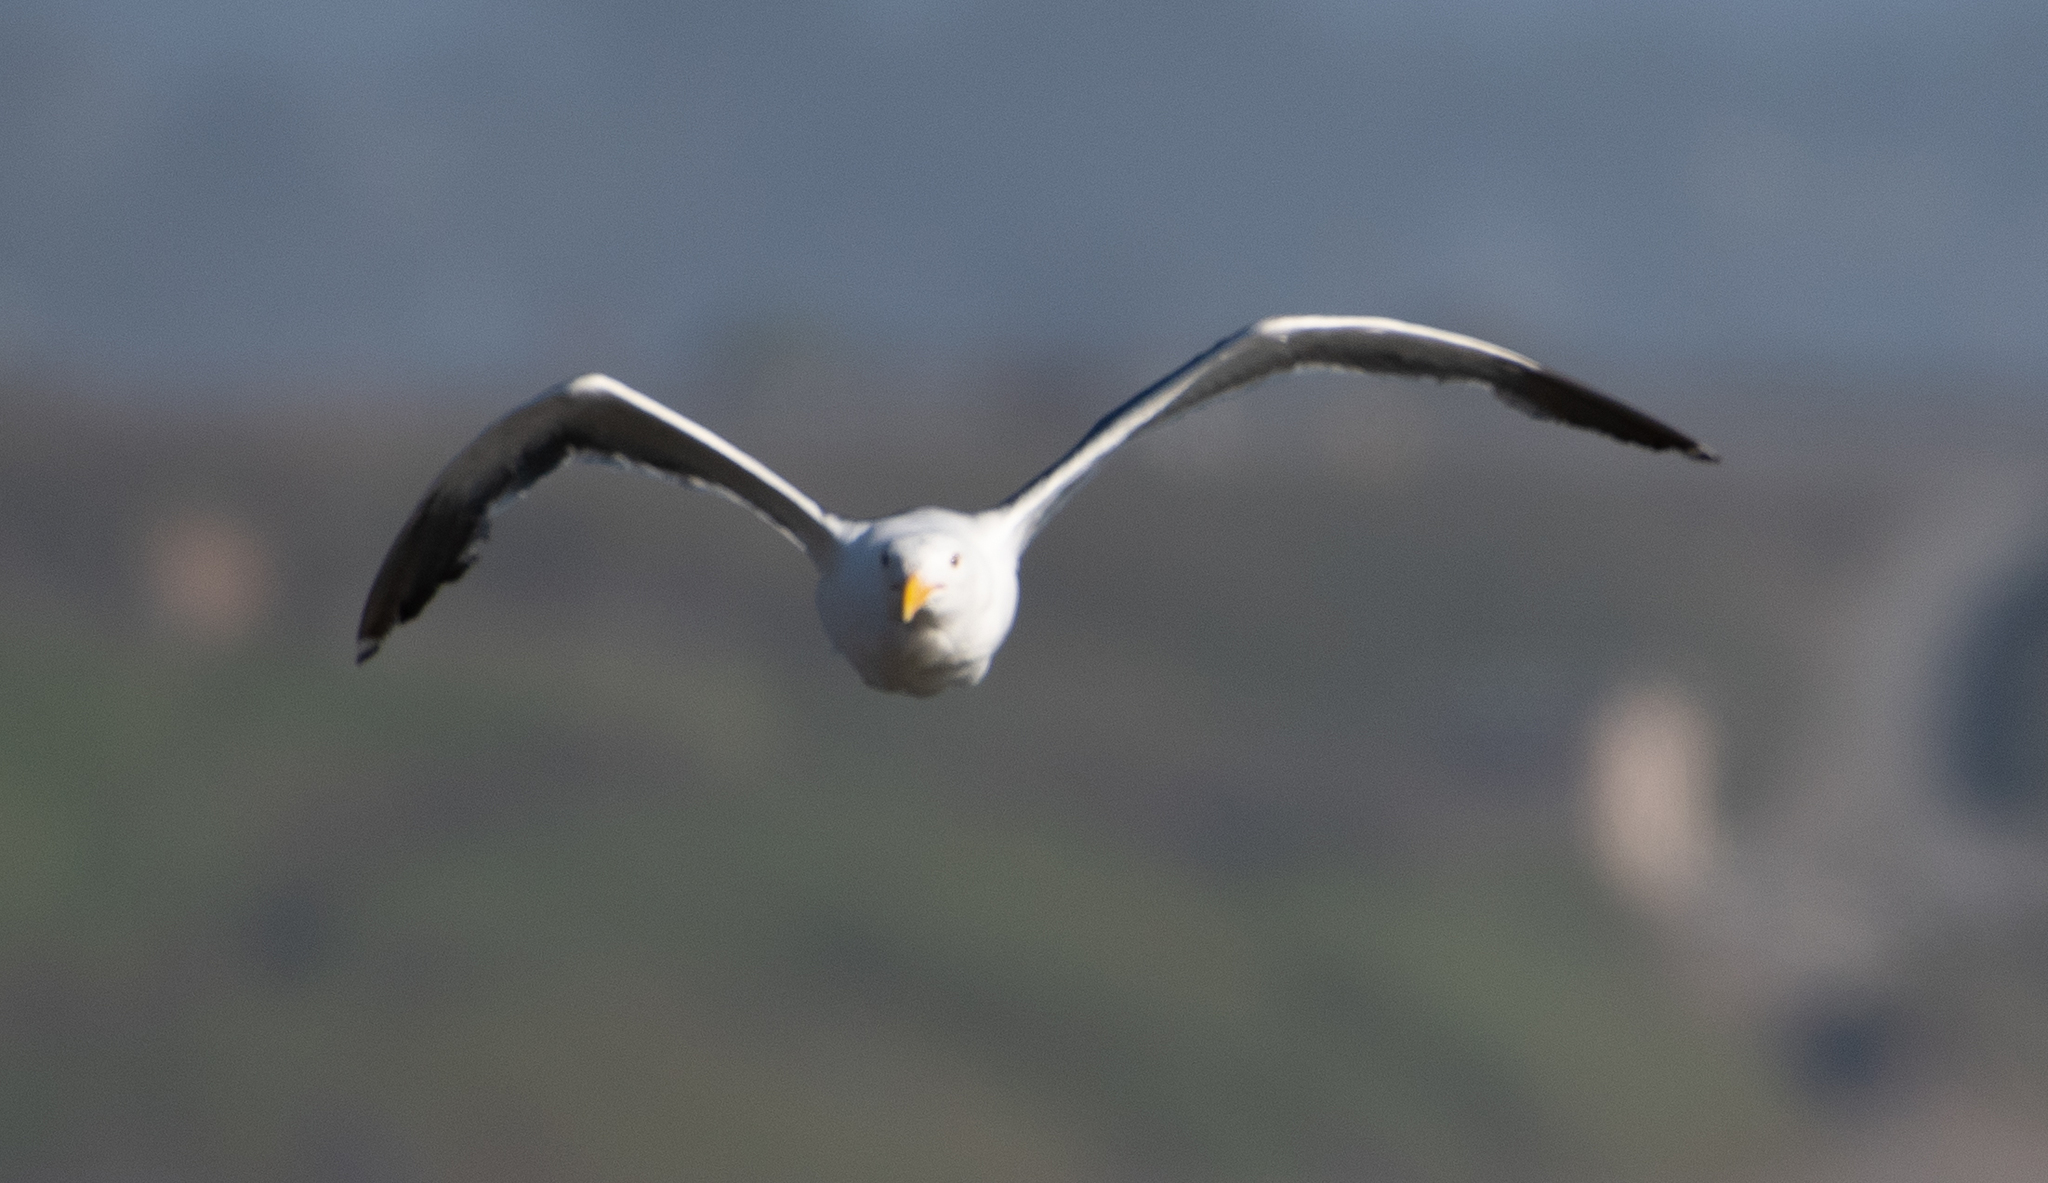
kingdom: Animalia
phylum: Chordata
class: Aves
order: Charadriiformes
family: Laridae
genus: Larus
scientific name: Larus occidentalis
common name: Western gull
